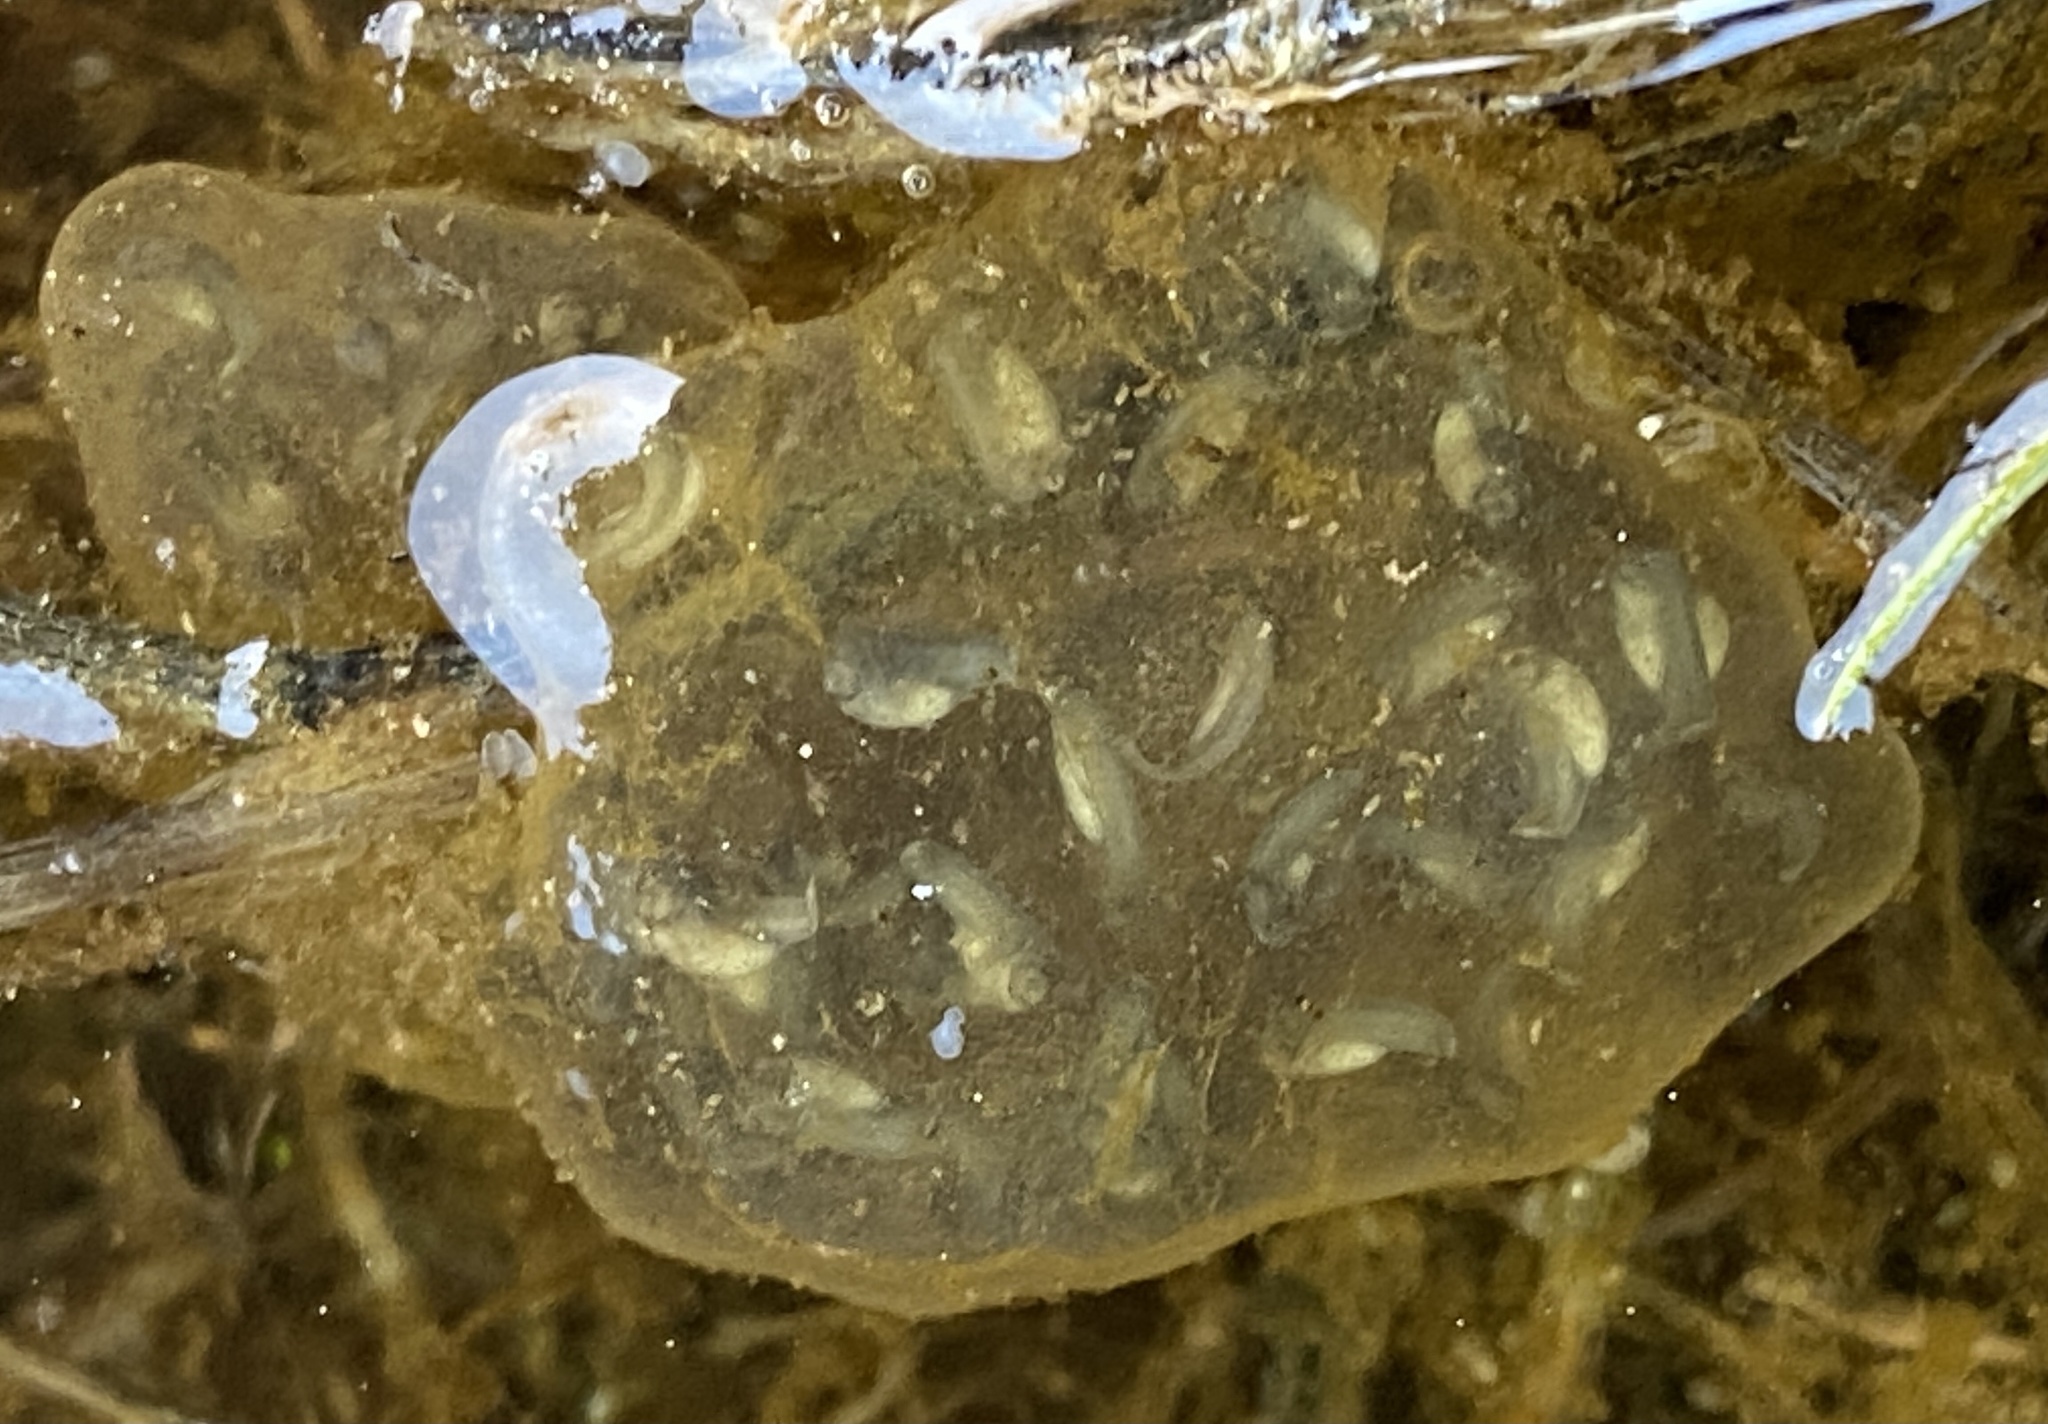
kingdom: Animalia
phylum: Chordata
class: Amphibia
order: Anura
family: Hylidae
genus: Pseudacris
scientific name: Pseudacris regilla
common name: Pacific chorus frog
